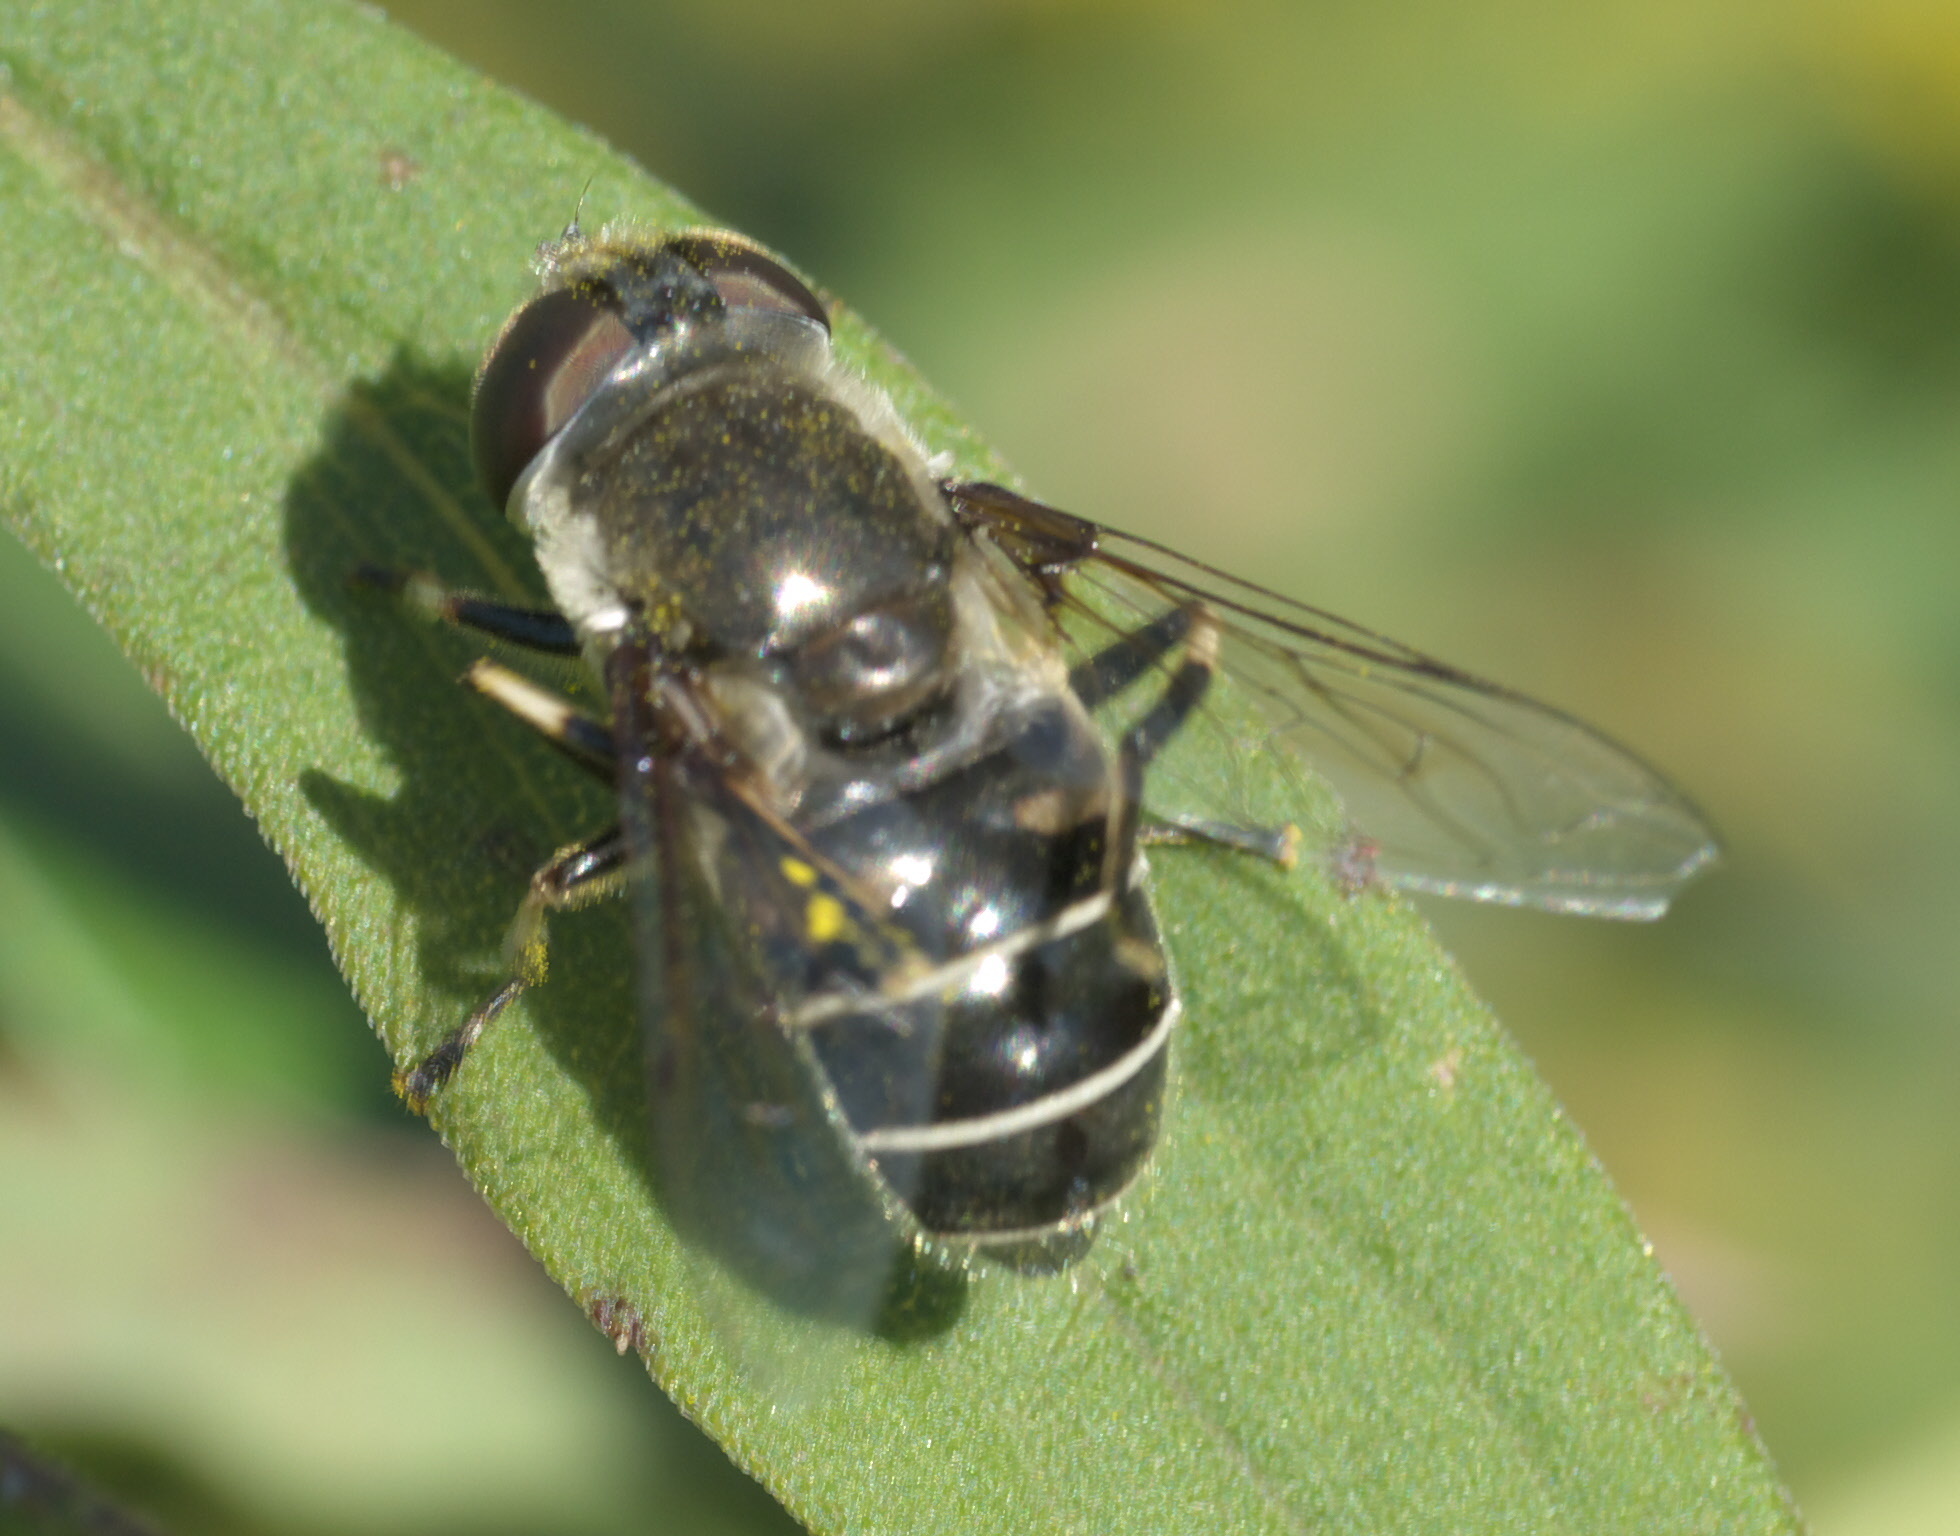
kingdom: Animalia
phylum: Arthropoda
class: Insecta
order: Diptera
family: Syrphidae
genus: Eristalis
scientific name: Eristalis dimidiata
